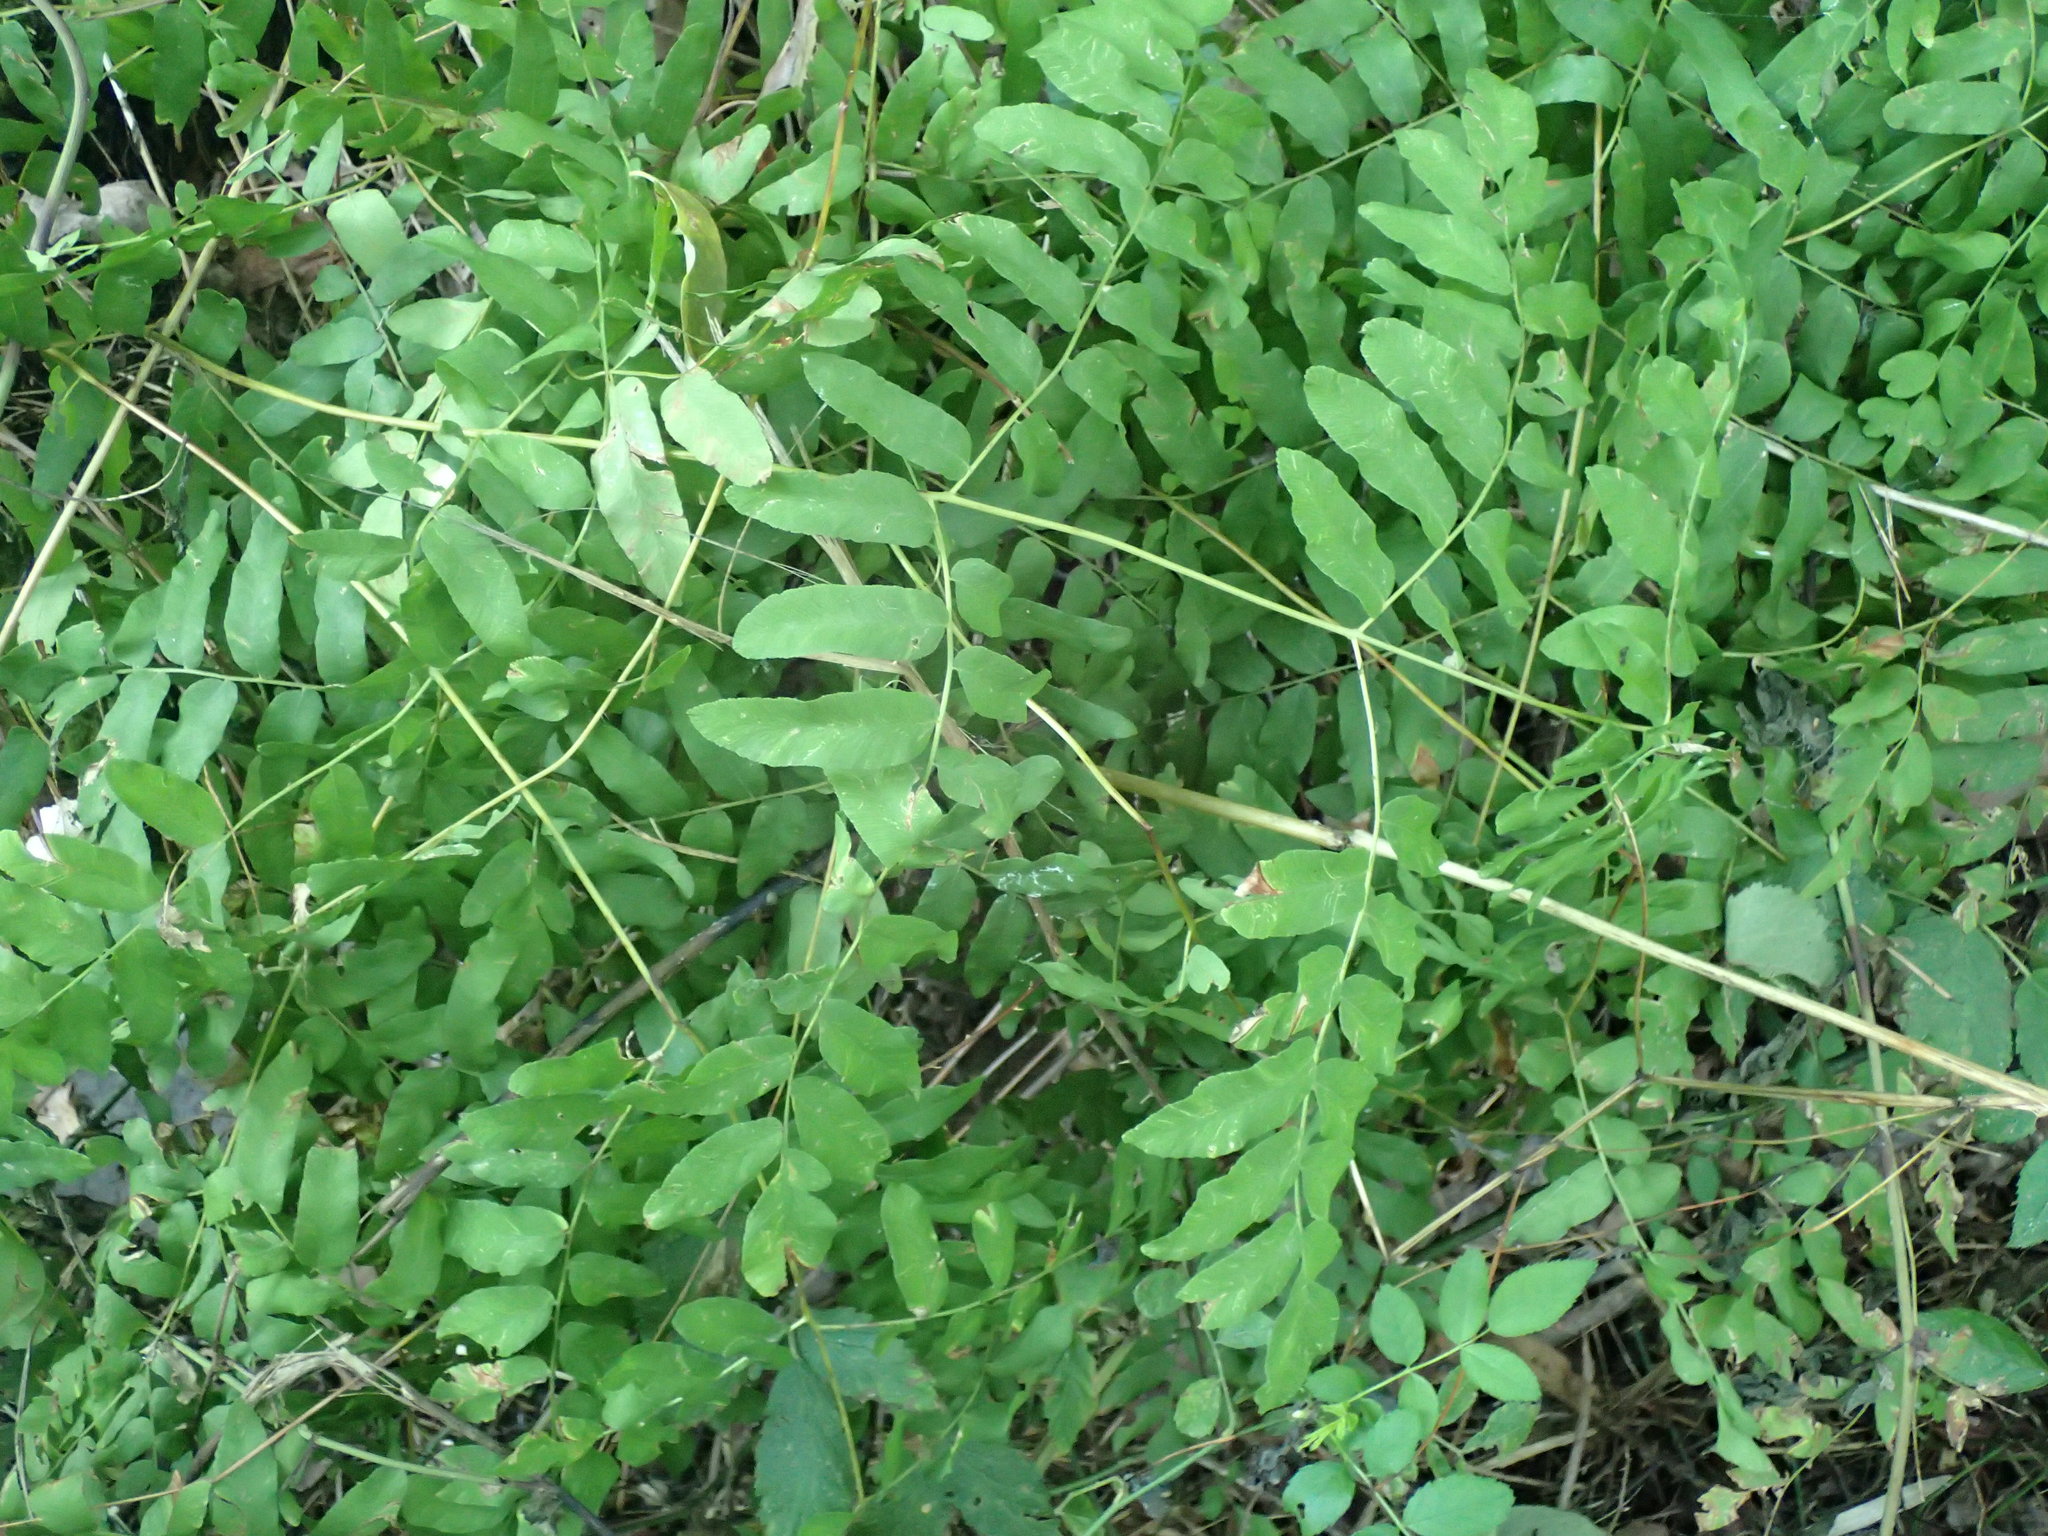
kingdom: Plantae
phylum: Tracheophyta
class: Polypodiopsida
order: Osmundales
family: Osmundaceae
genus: Osmunda
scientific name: Osmunda spectabilis
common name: American royal fern
